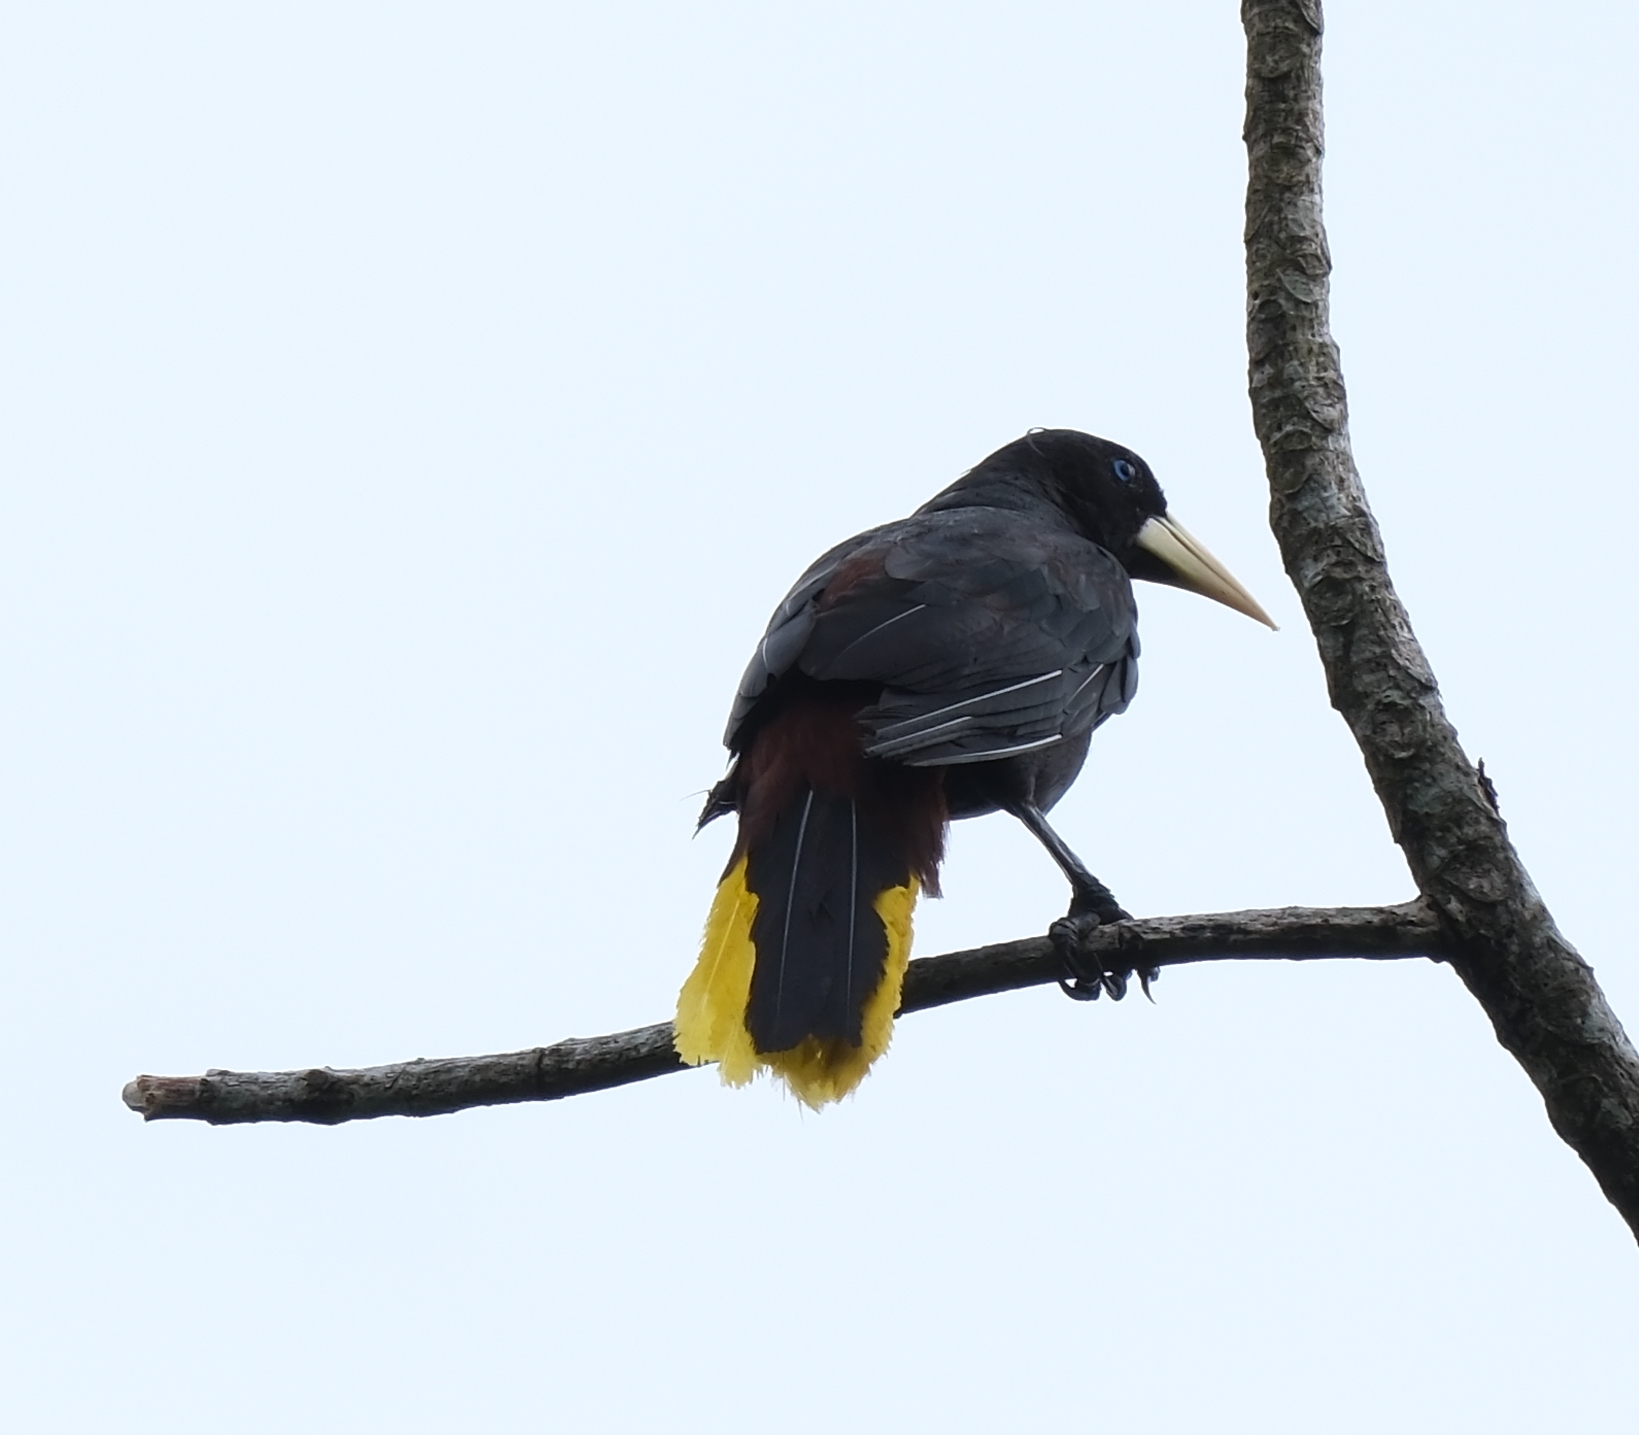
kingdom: Animalia
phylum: Chordata
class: Aves
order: Passeriformes
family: Icteridae
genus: Psarocolius
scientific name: Psarocolius decumanus
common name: Crested oropendola
